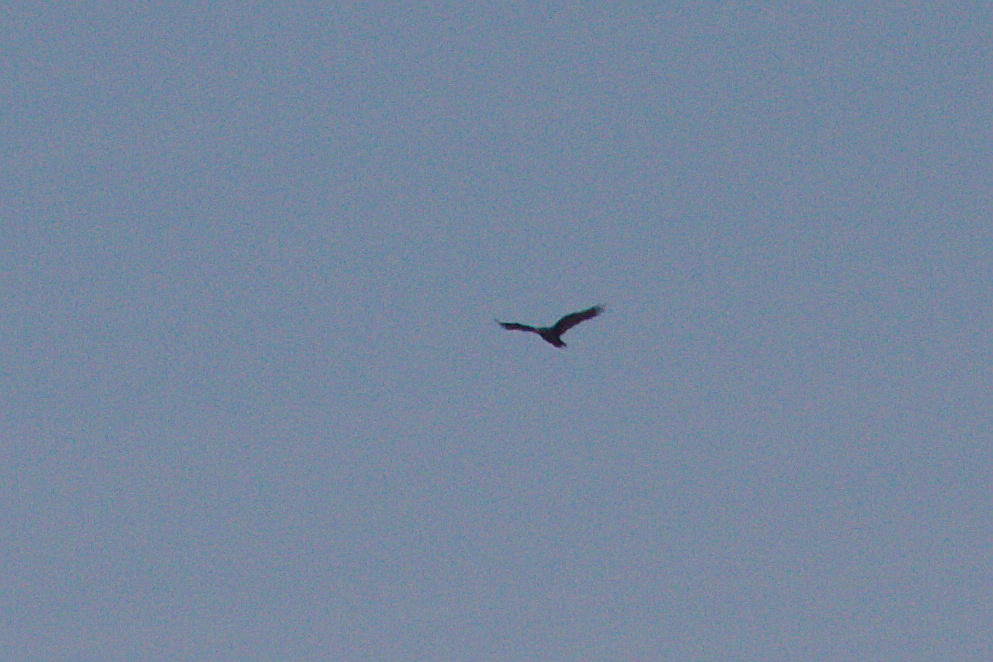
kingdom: Animalia
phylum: Chordata
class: Aves
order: Accipitriformes
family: Cathartidae
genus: Cathartes
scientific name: Cathartes aura
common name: Turkey vulture
